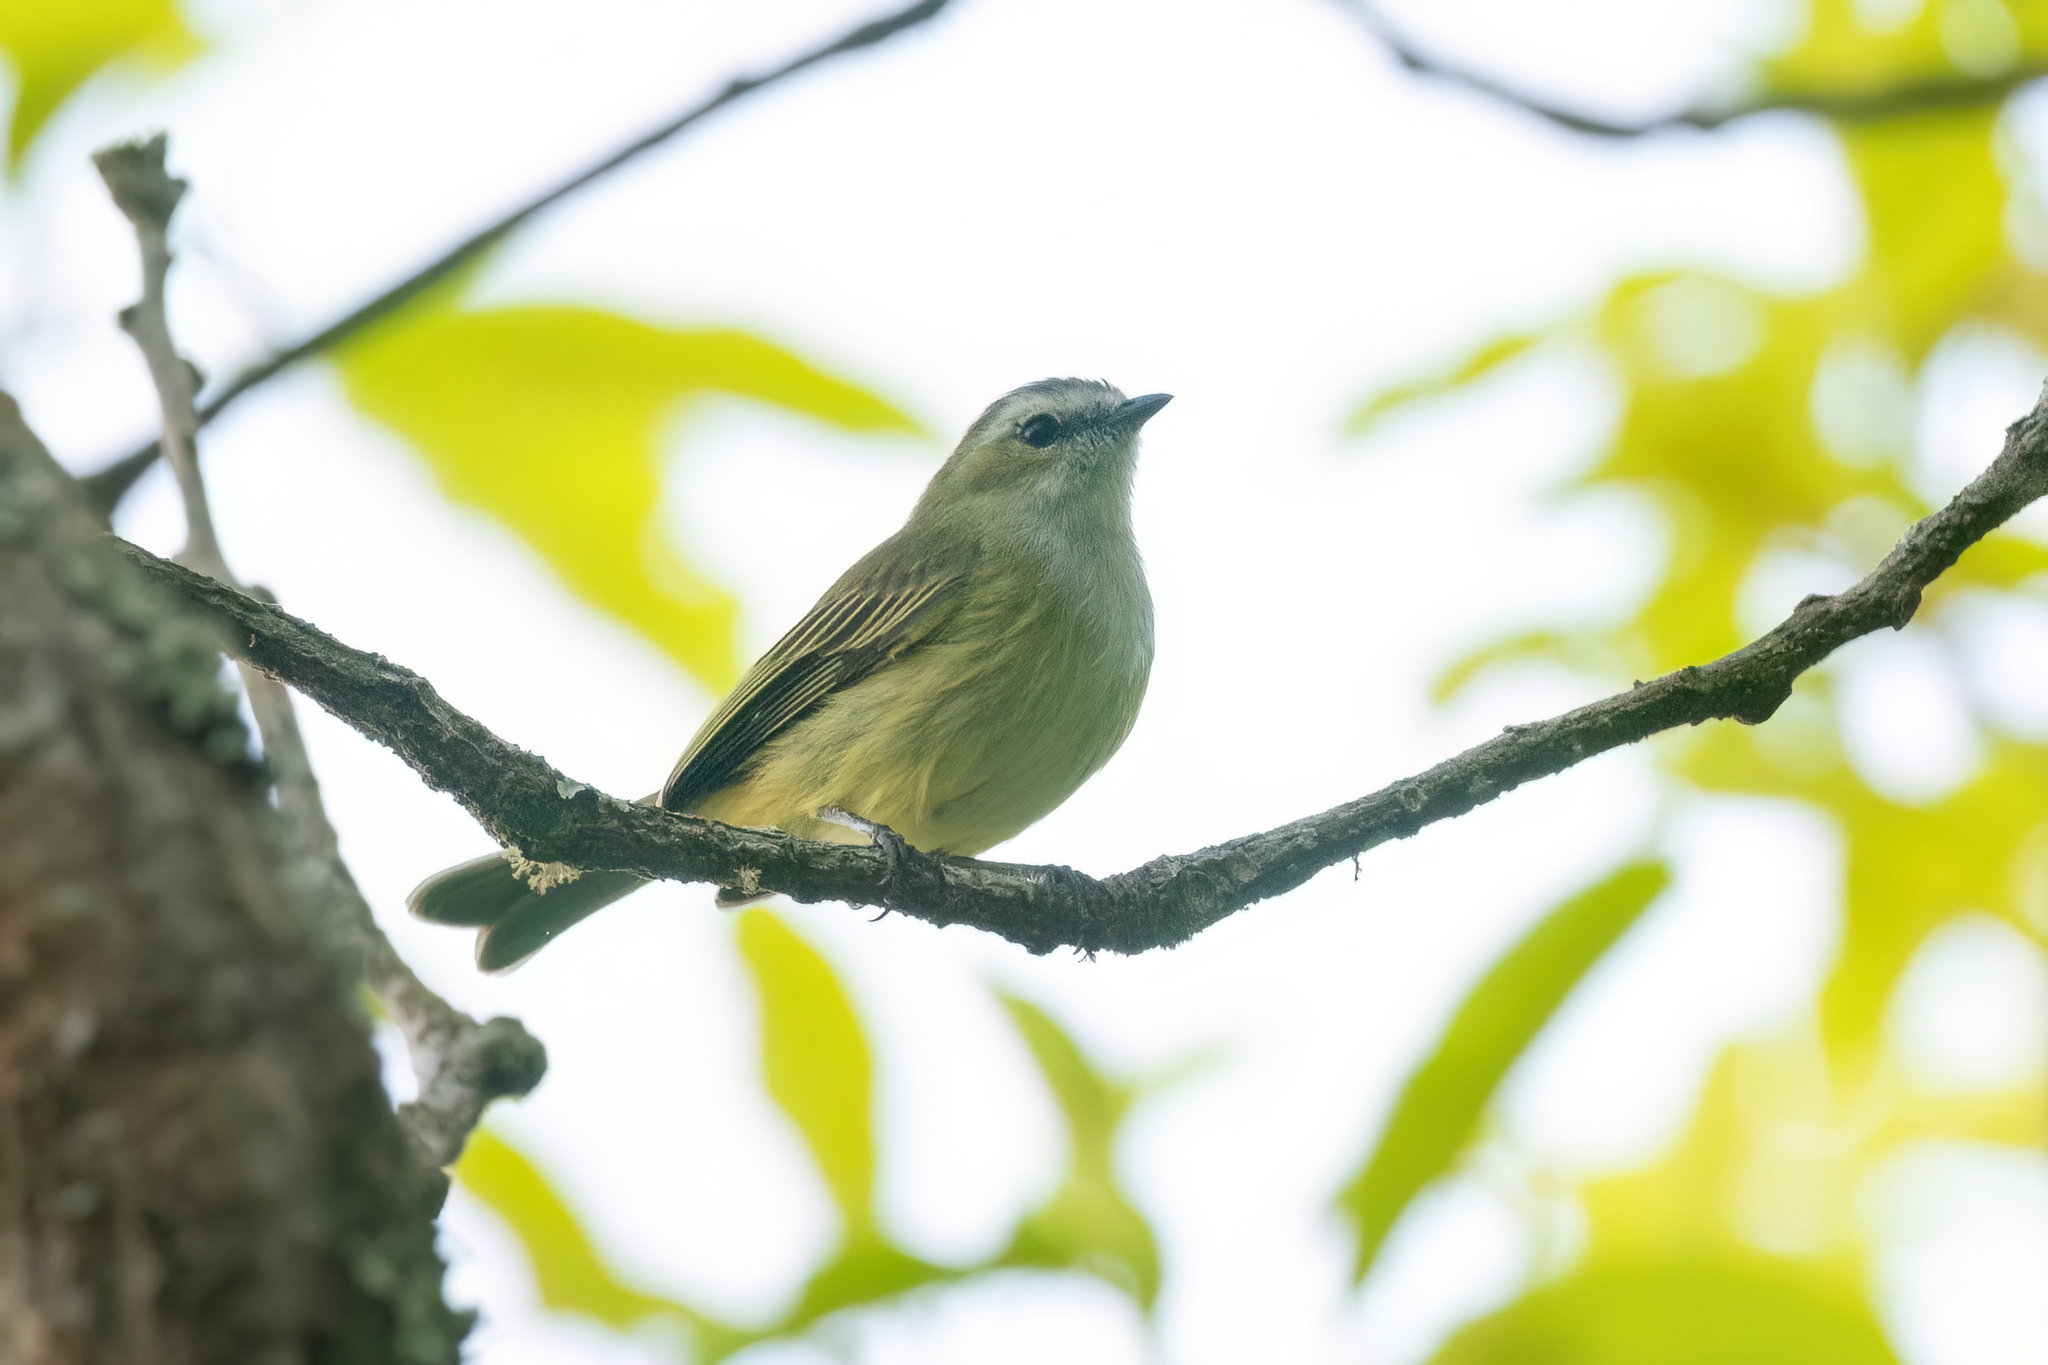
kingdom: Animalia
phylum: Chordata
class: Aves
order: Passeriformes
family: Tyrannidae
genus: Zimmerius
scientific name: Zimmerius vilissimus
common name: Paltry tyrannulet
